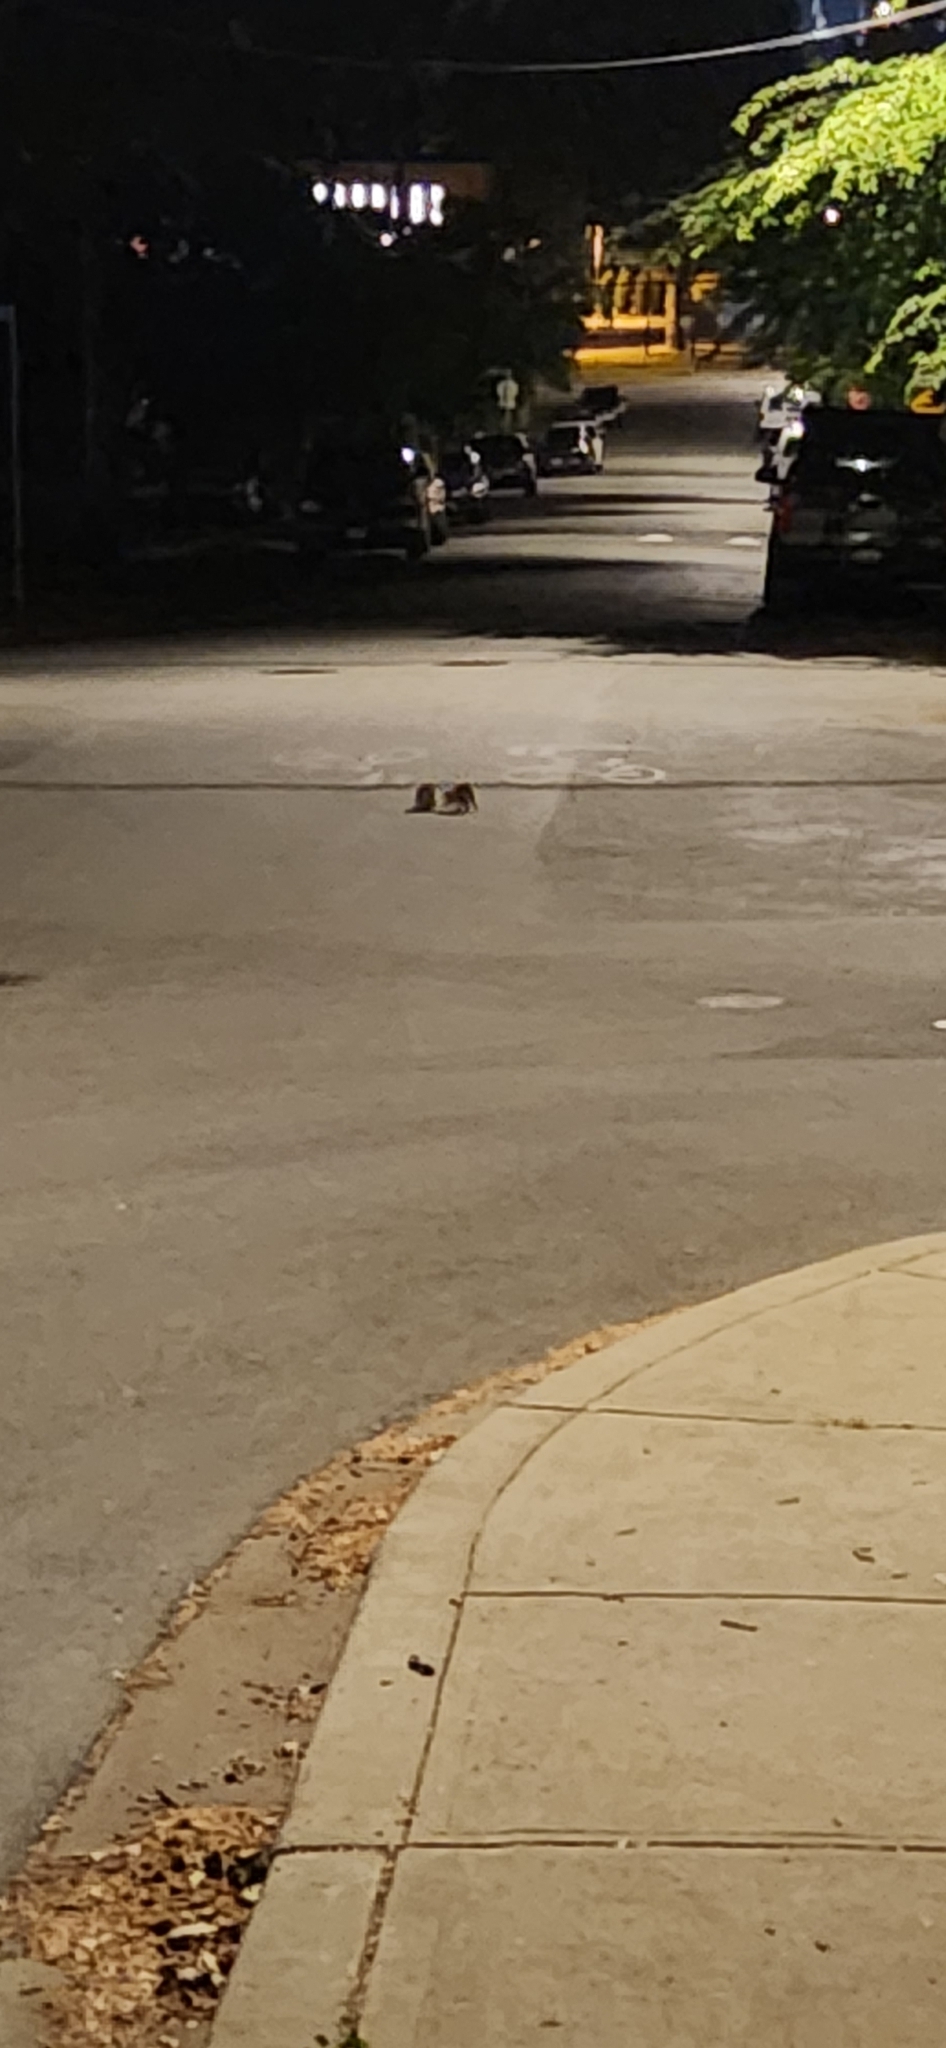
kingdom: Animalia
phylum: Chordata
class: Mammalia
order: Carnivora
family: Procyonidae
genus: Procyon
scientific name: Procyon lotor
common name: Raccoon
